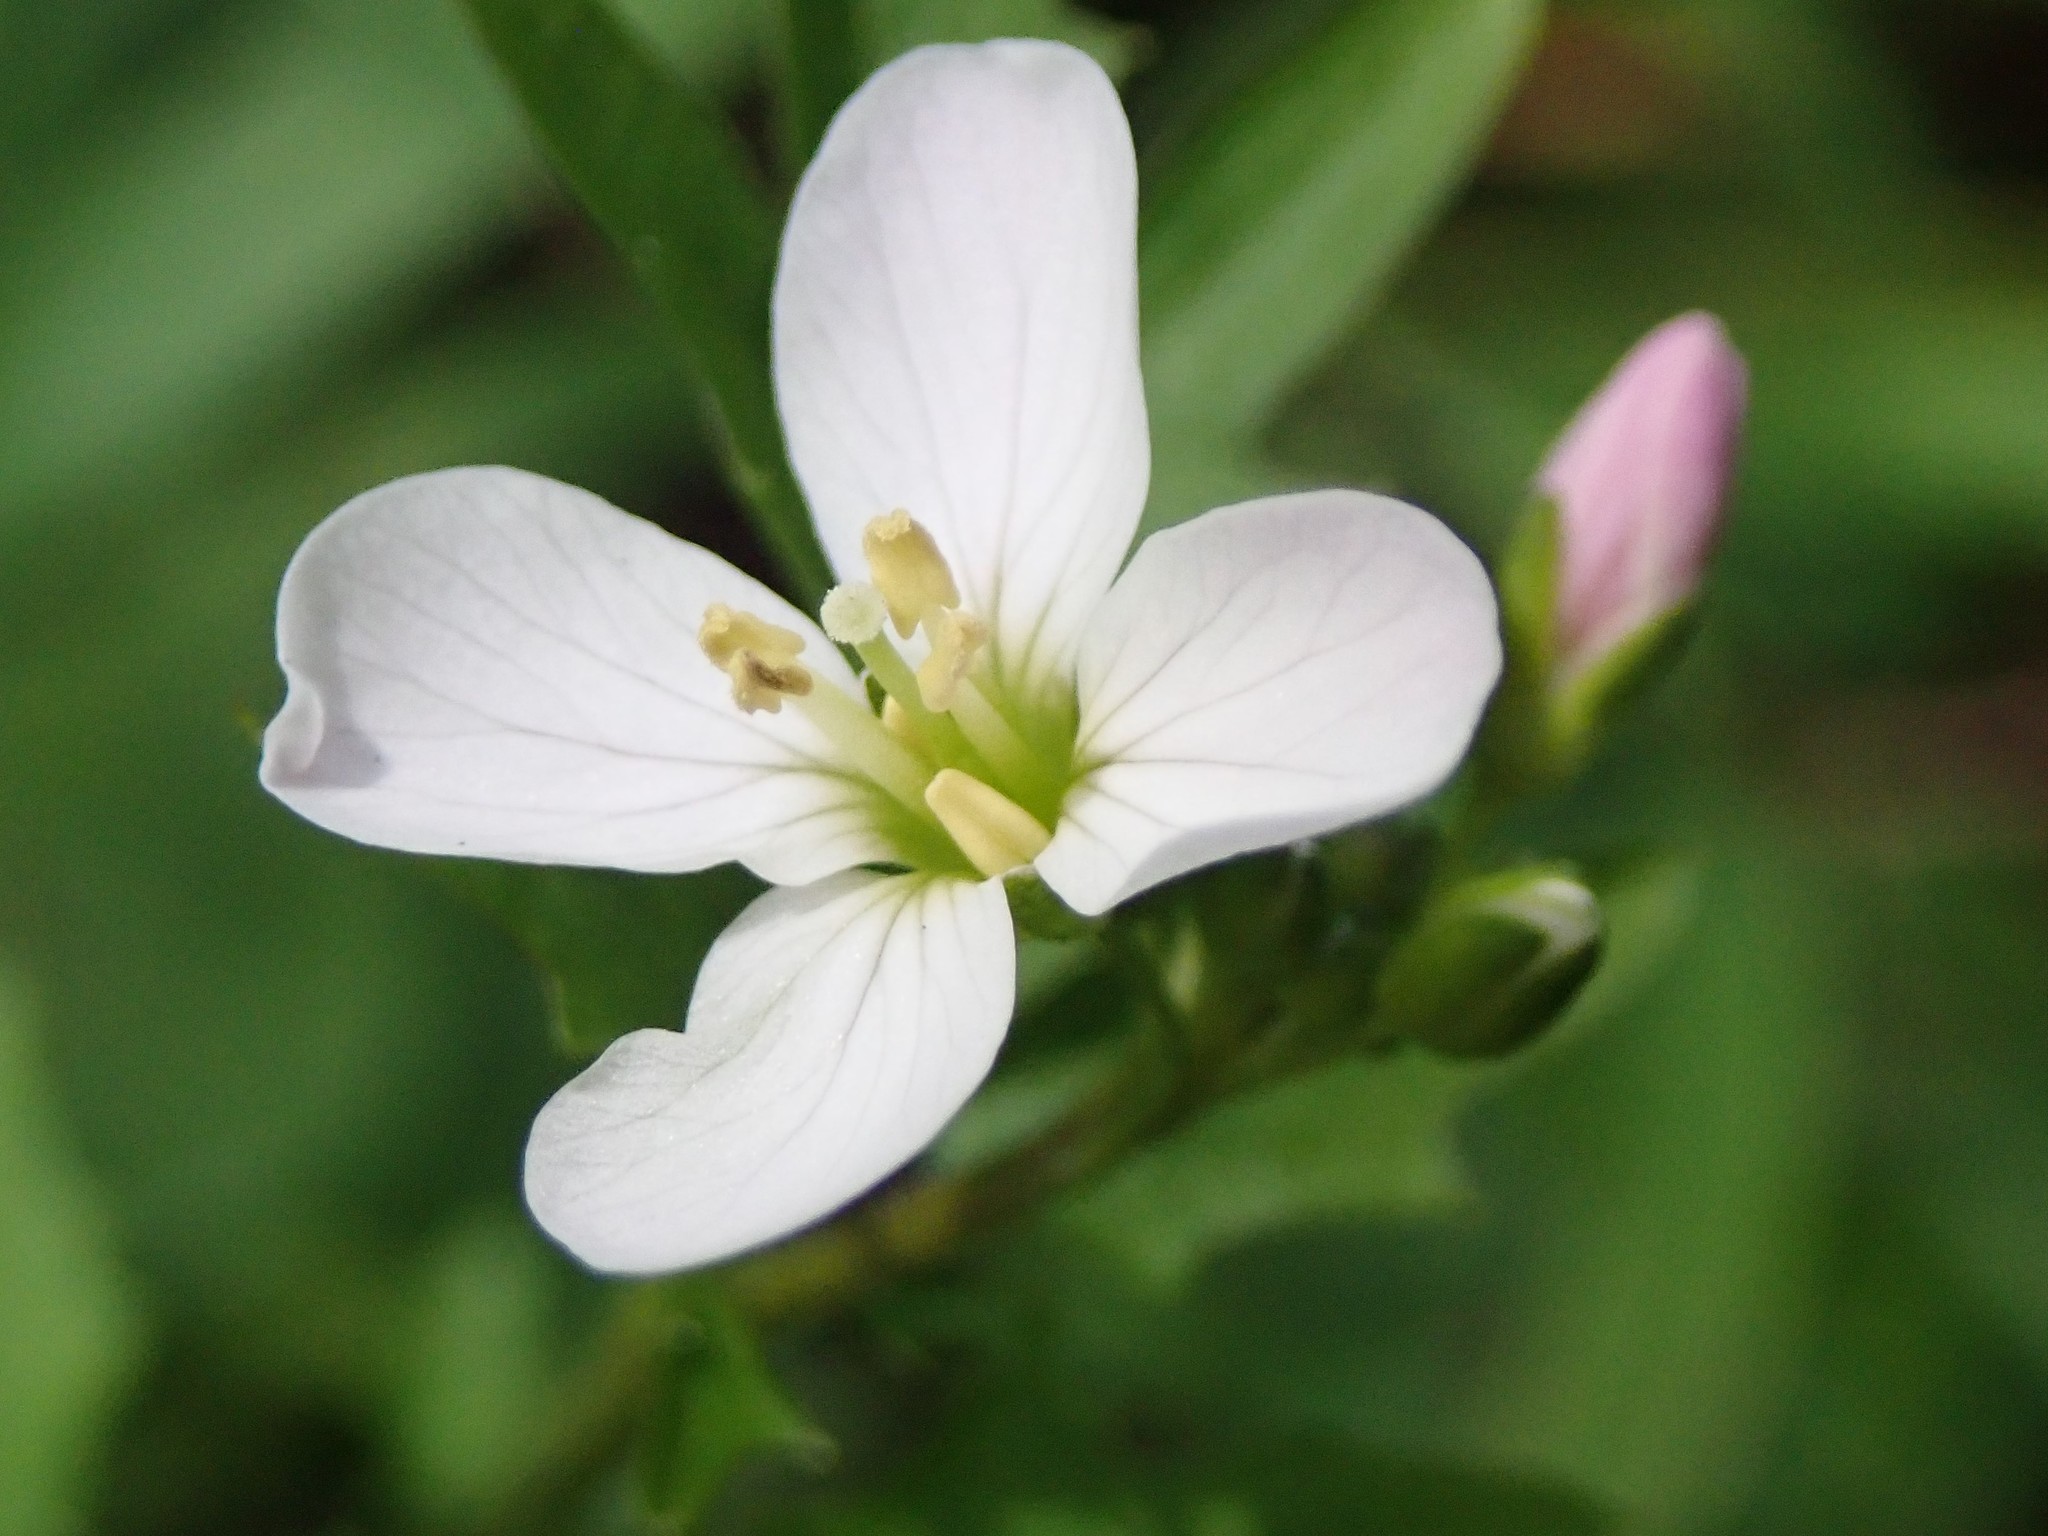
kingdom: Plantae
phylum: Tracheophyta
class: Magnoliopsida
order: Brassicales
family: Brassicaceae
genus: Cardamine
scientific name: Cardamine californica
